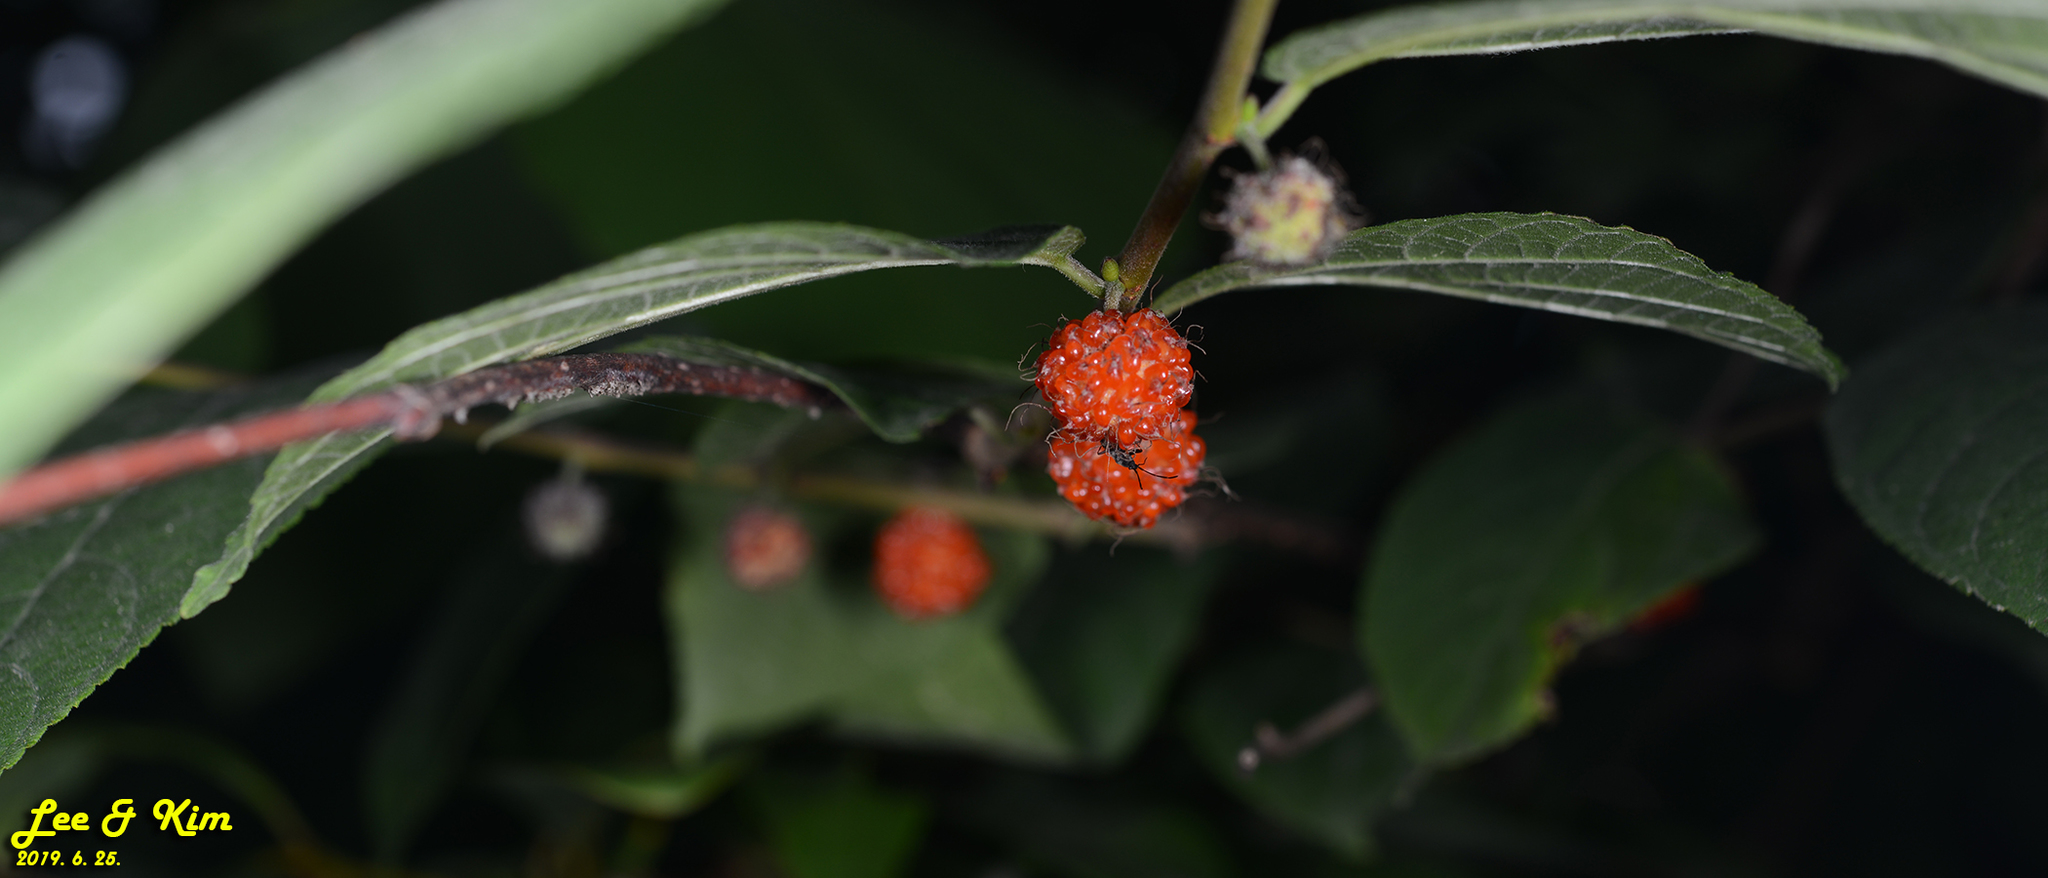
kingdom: Plantae
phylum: Tracheophyta
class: Magnoliopsida
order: Rosales
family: Moraceae
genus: Broussonetia
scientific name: Broussonetia papyrifera
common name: Paper mulberry
